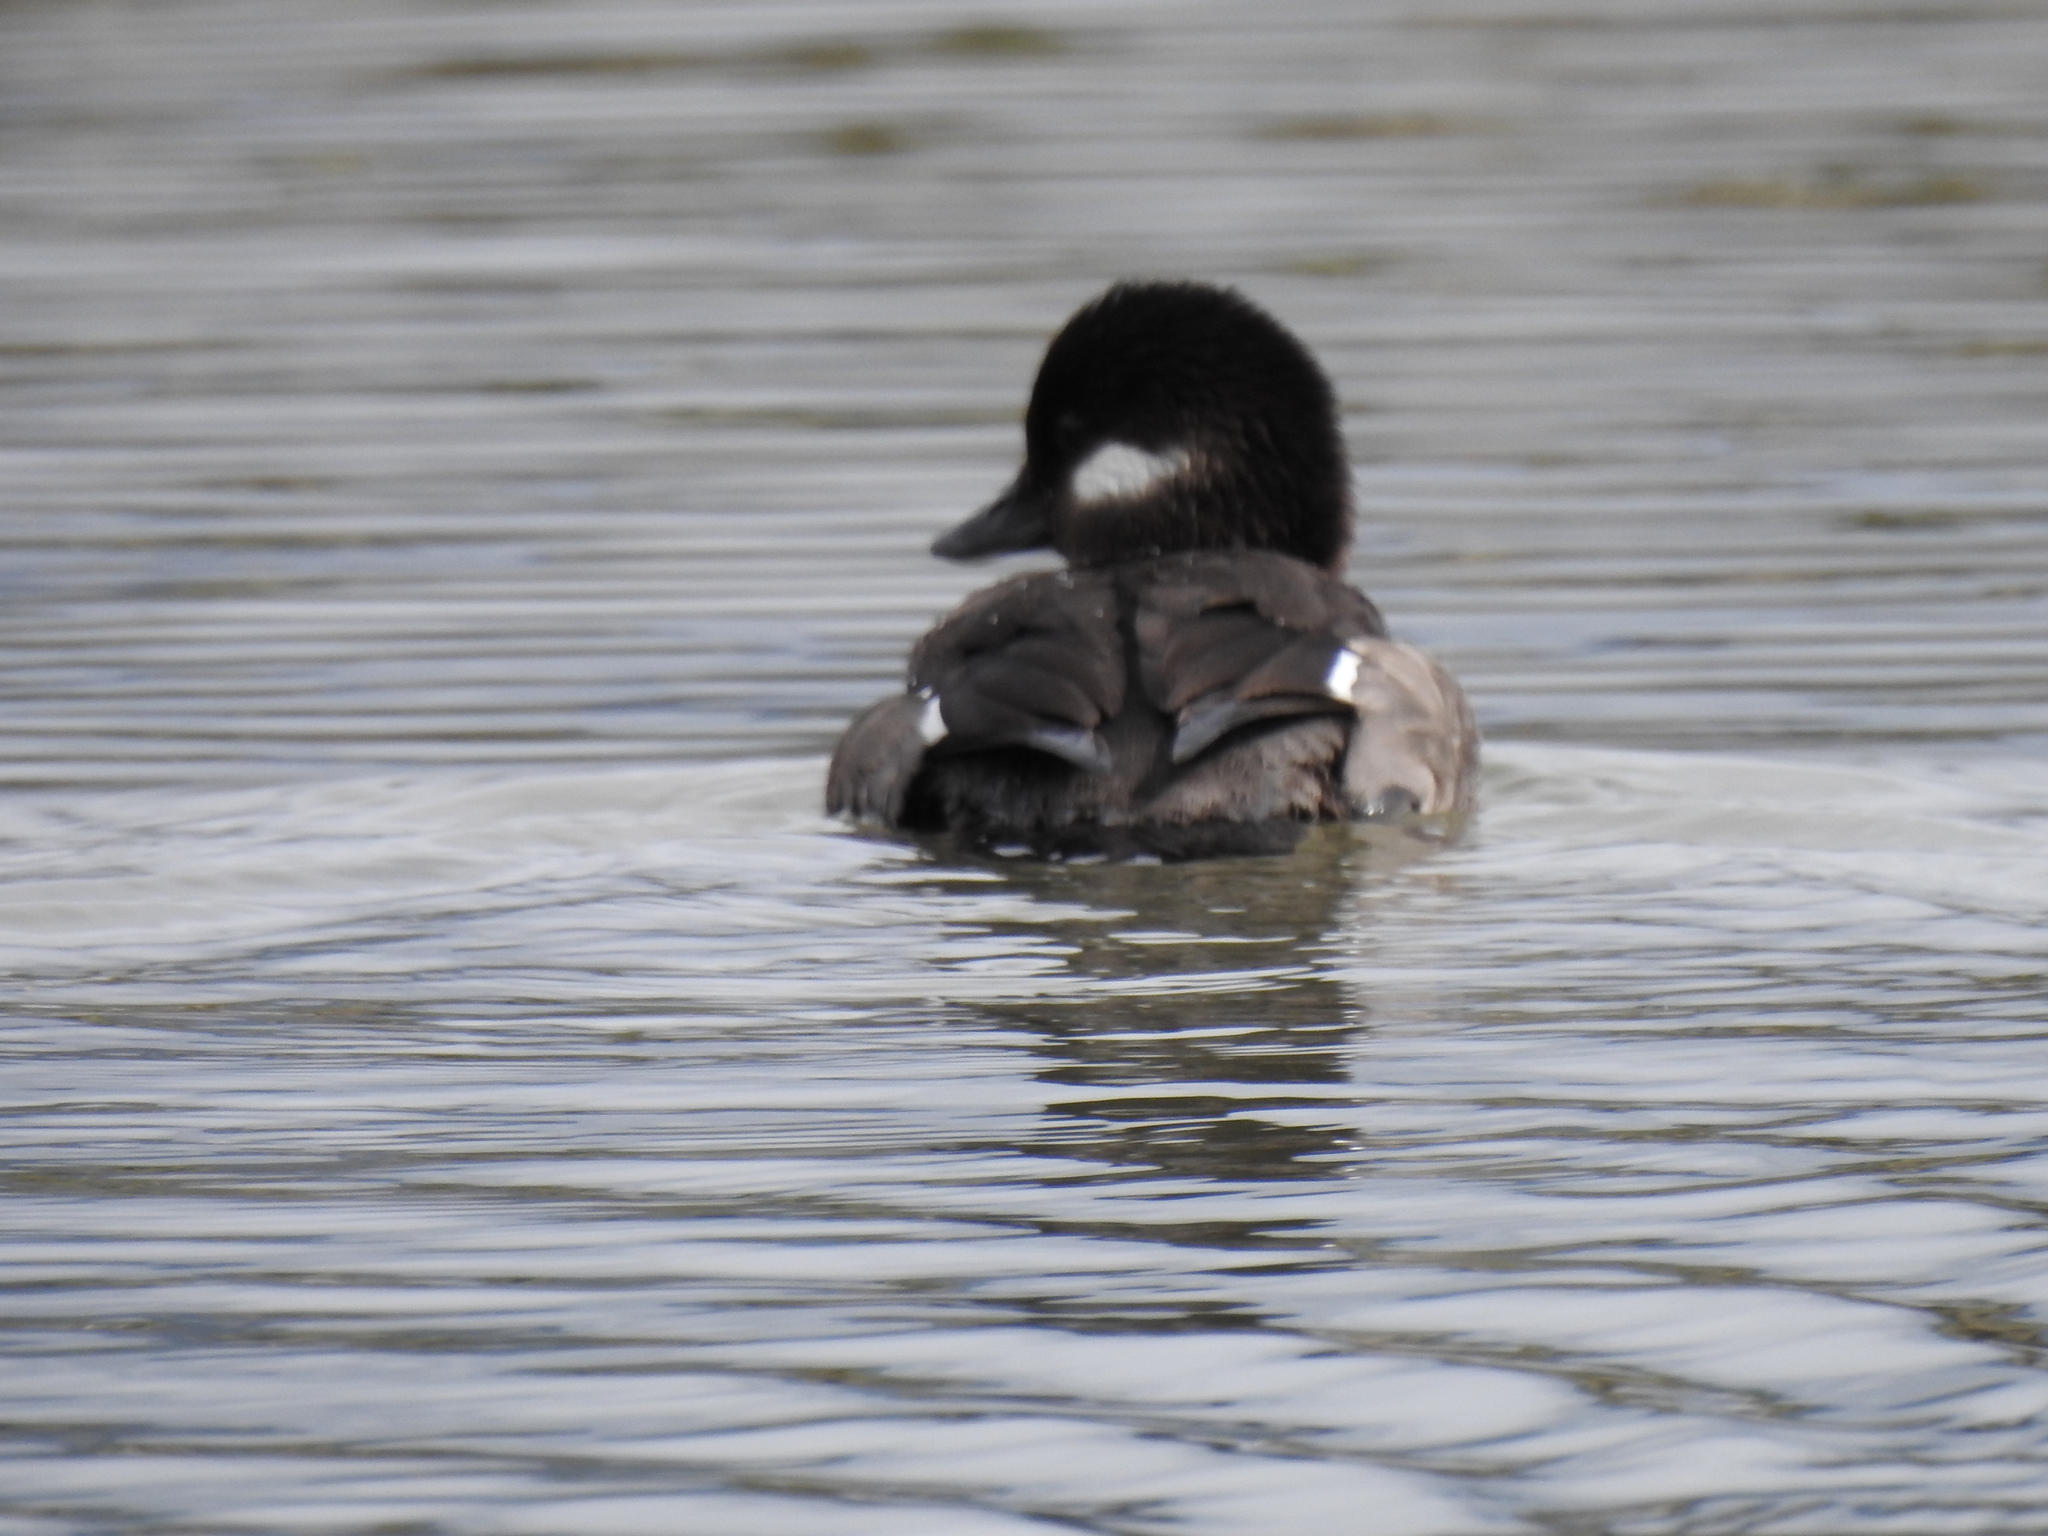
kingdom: Animalia
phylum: Chordata
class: Aves
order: Anseriformes
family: Anatidae
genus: Bucephala
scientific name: Bucephala albeola
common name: Bufflehead
